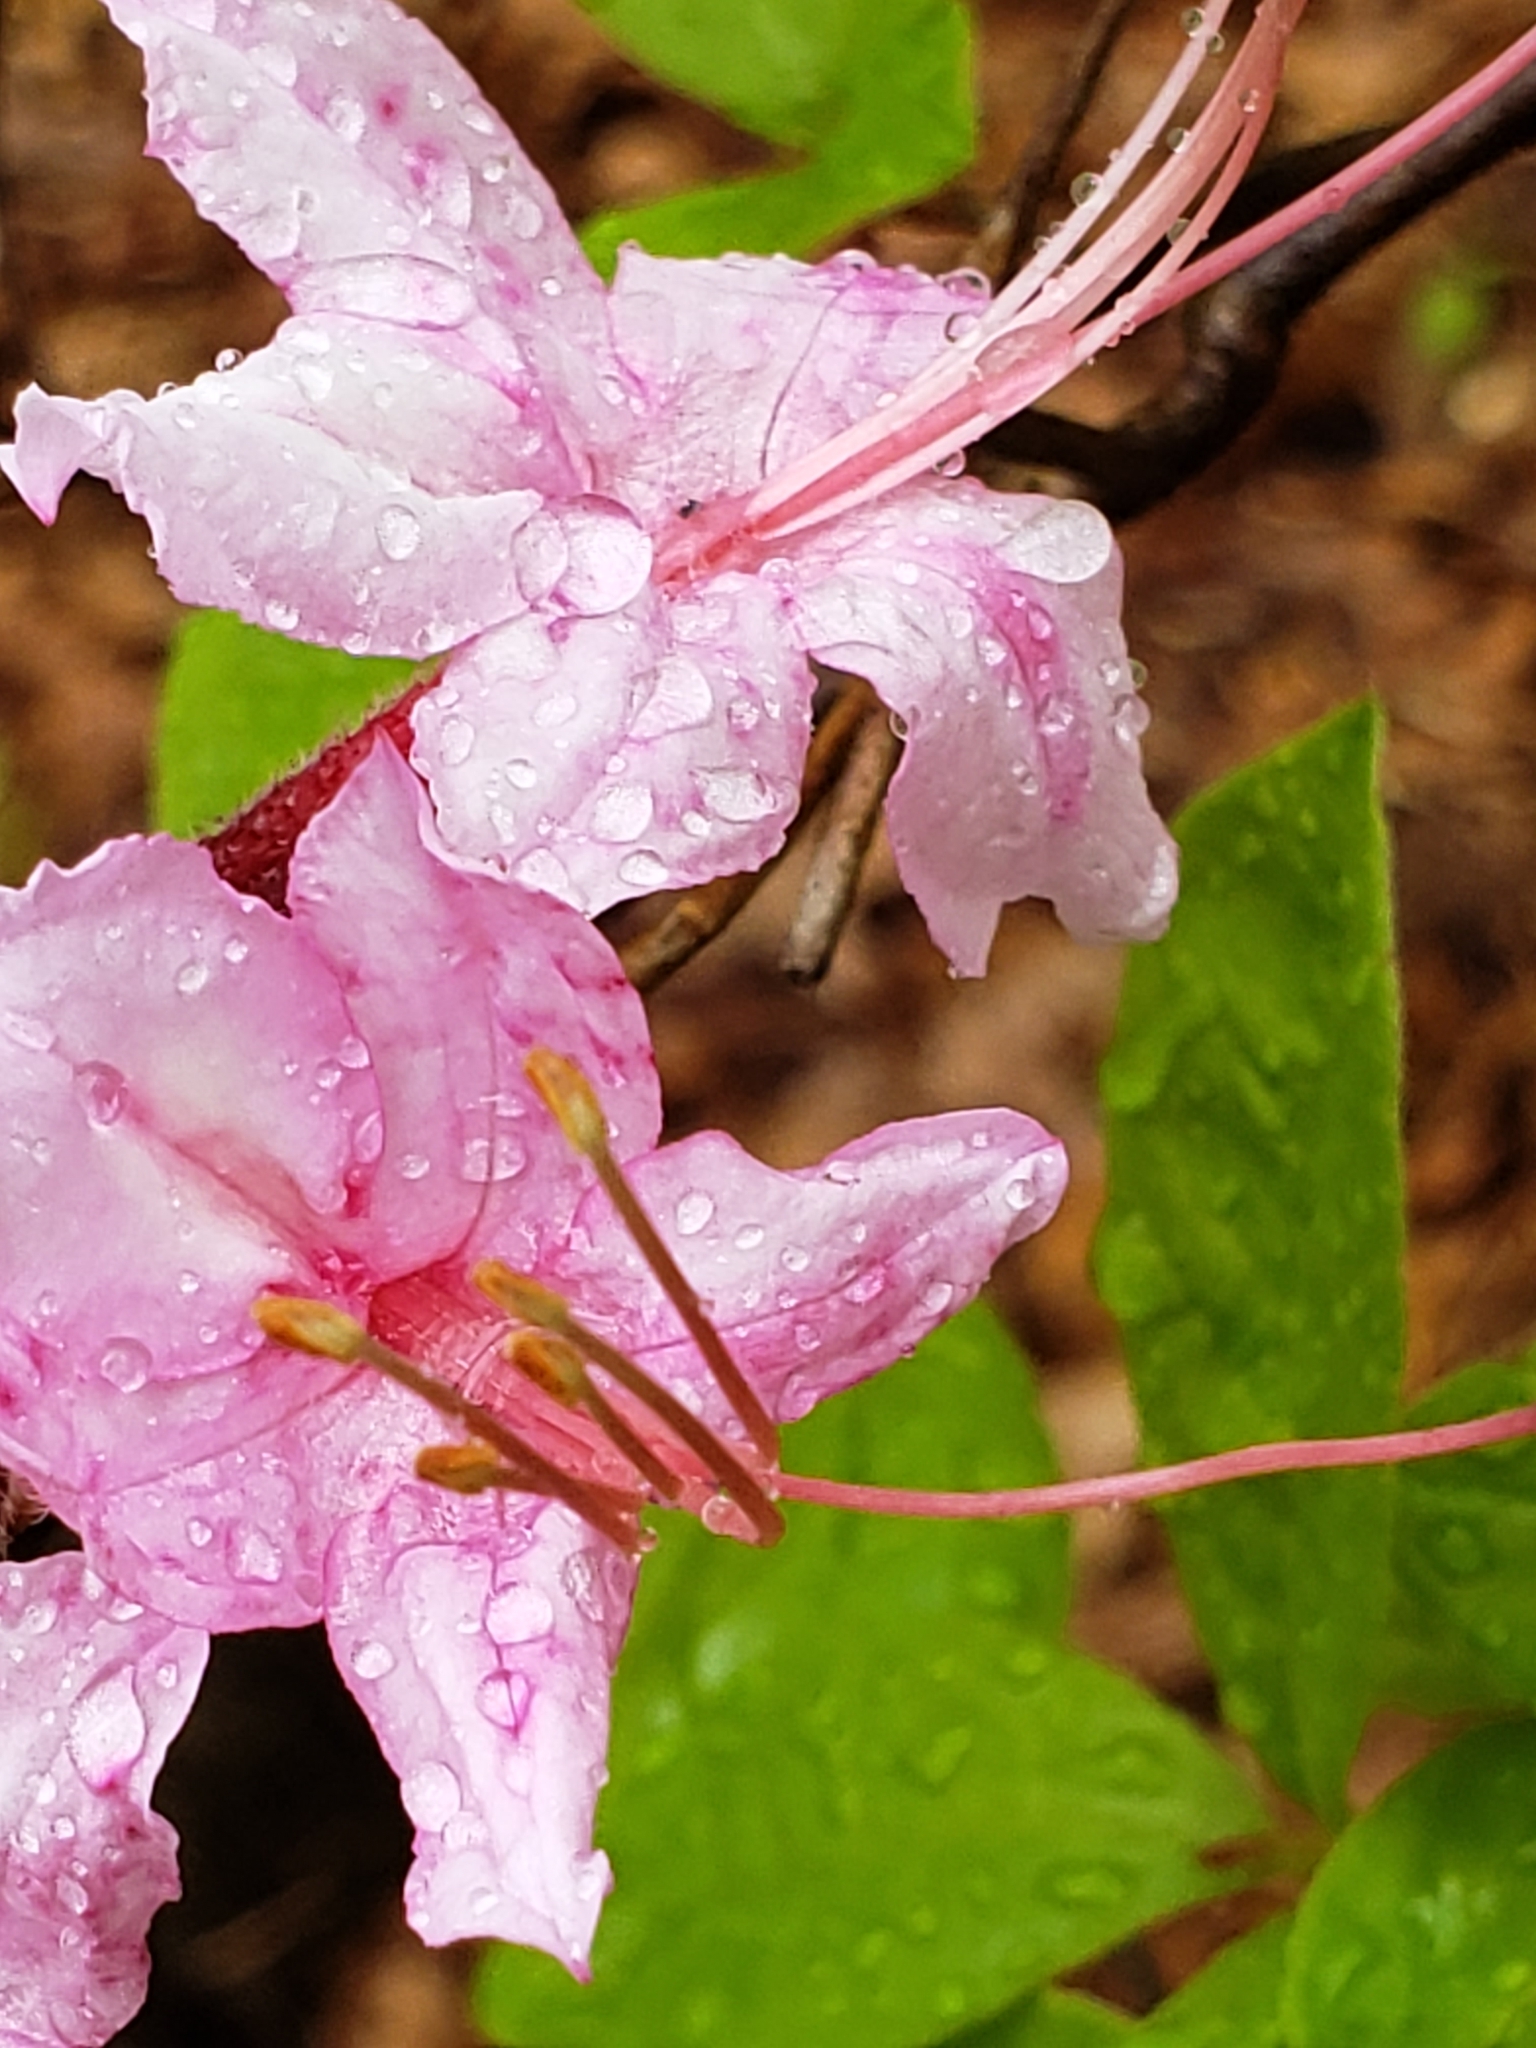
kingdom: Plantae
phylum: Tracheophyta
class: Magnoliopsida
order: Ericales
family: Ericaceae
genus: Rhododendron
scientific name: Rhododendron periclymenoides
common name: Election-pink
